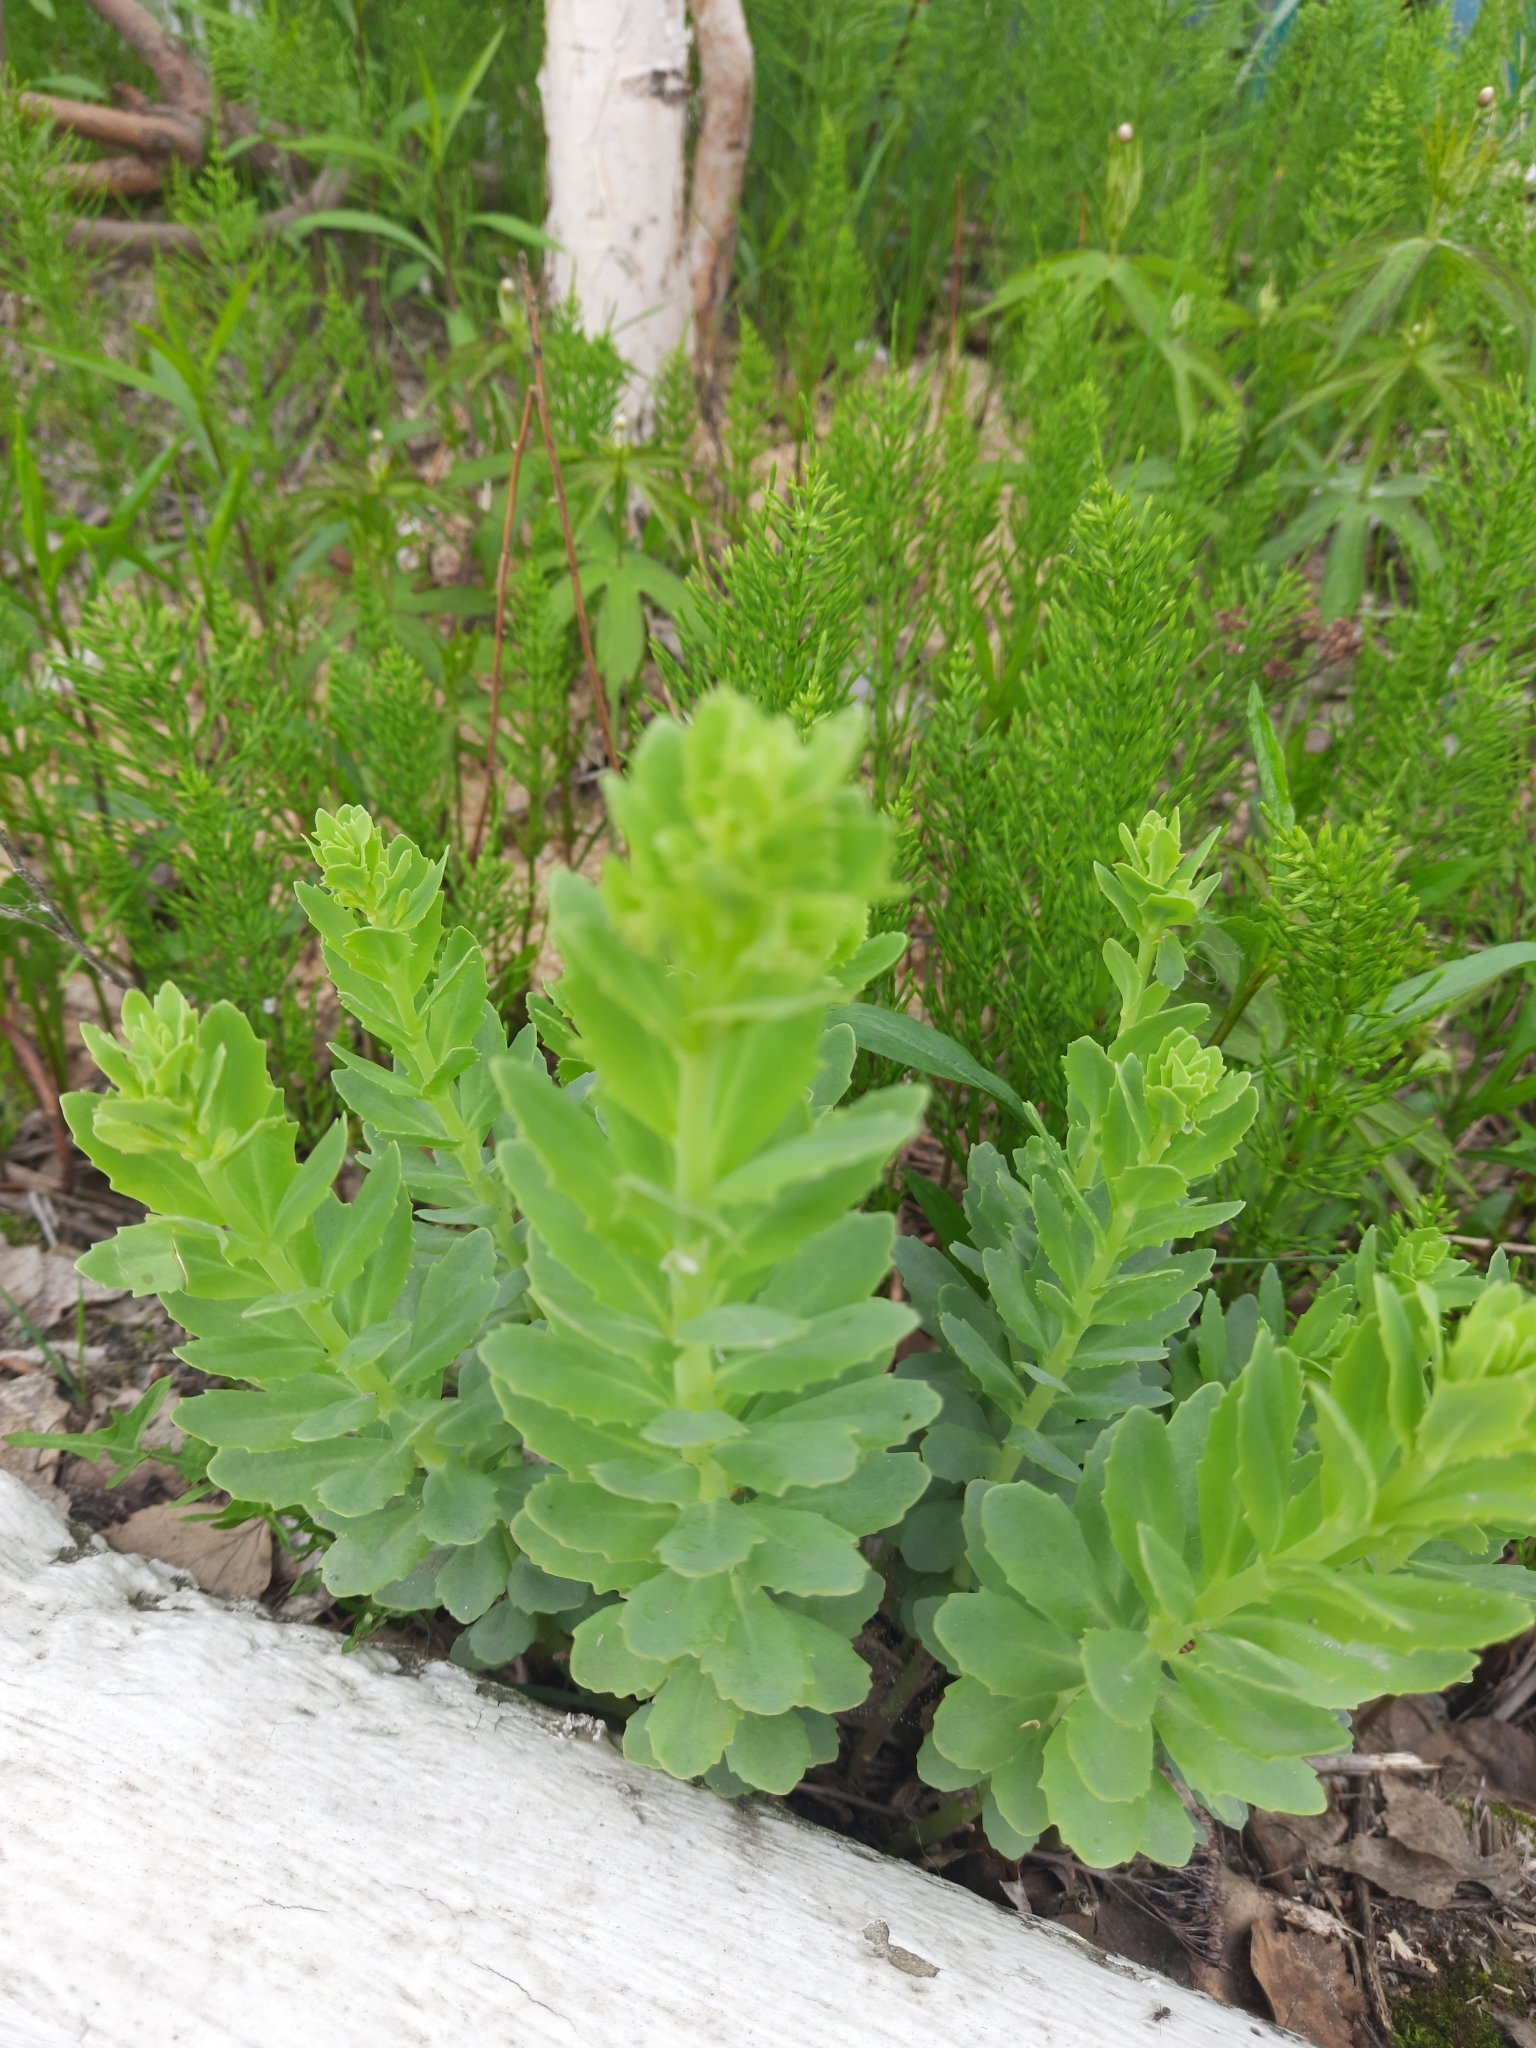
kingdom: Plantae
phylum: Tracheophyta
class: Magnoliopsida
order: Saxifragales
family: Crassulaceae
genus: Hylotelephium
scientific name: Hylotelephium telephium
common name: Live-forever
